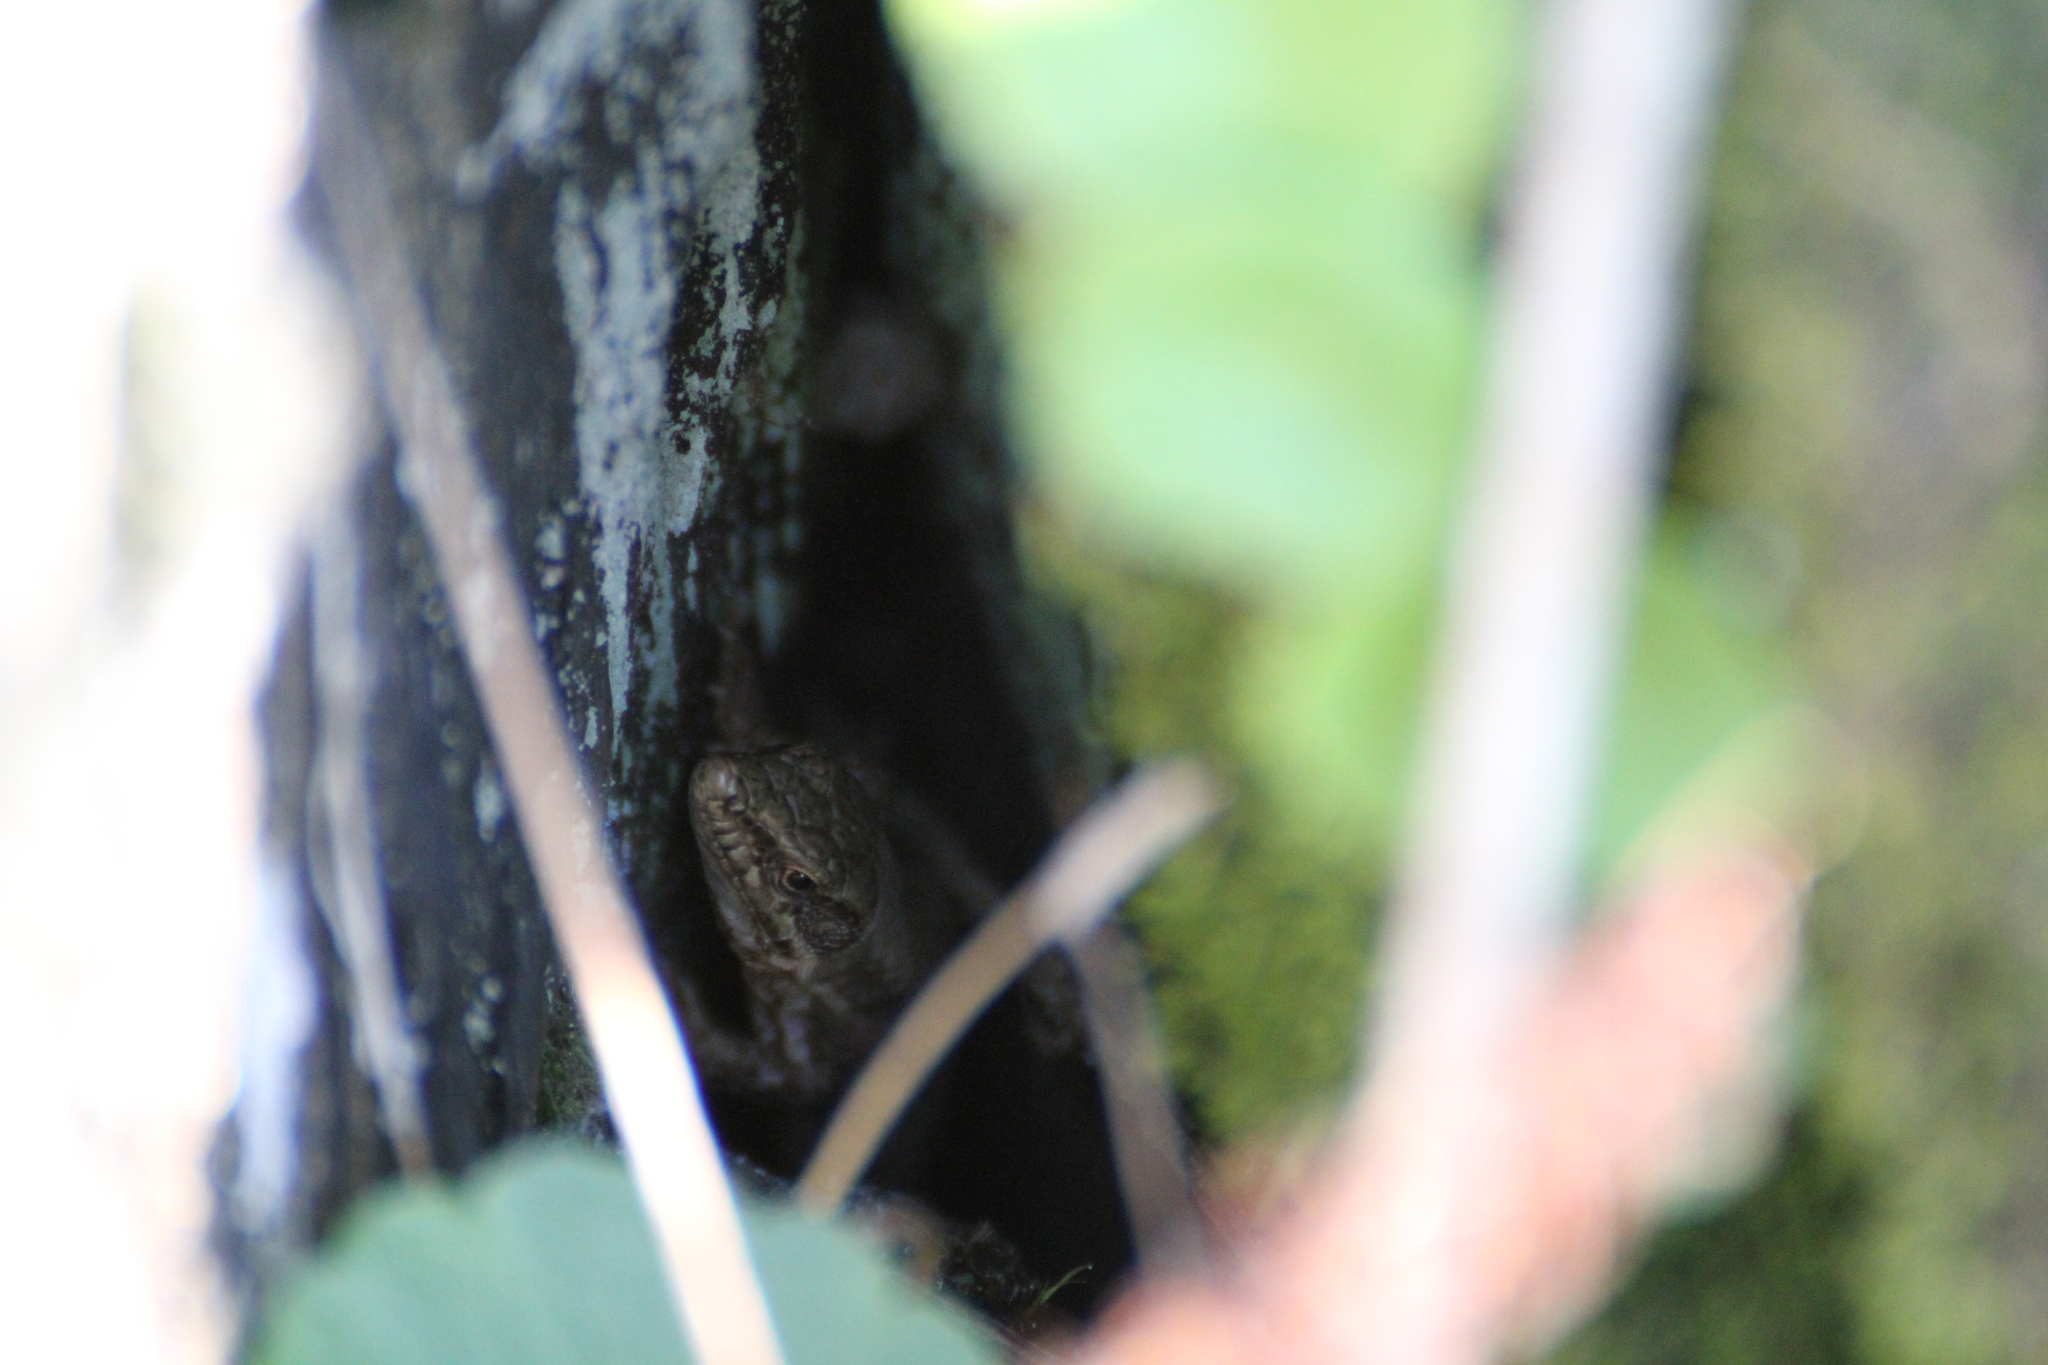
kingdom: Animalia
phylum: Chordata
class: Squamata
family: Lacertidae
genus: Podarcis
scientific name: Podarcis muralis
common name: Common wall lizard
